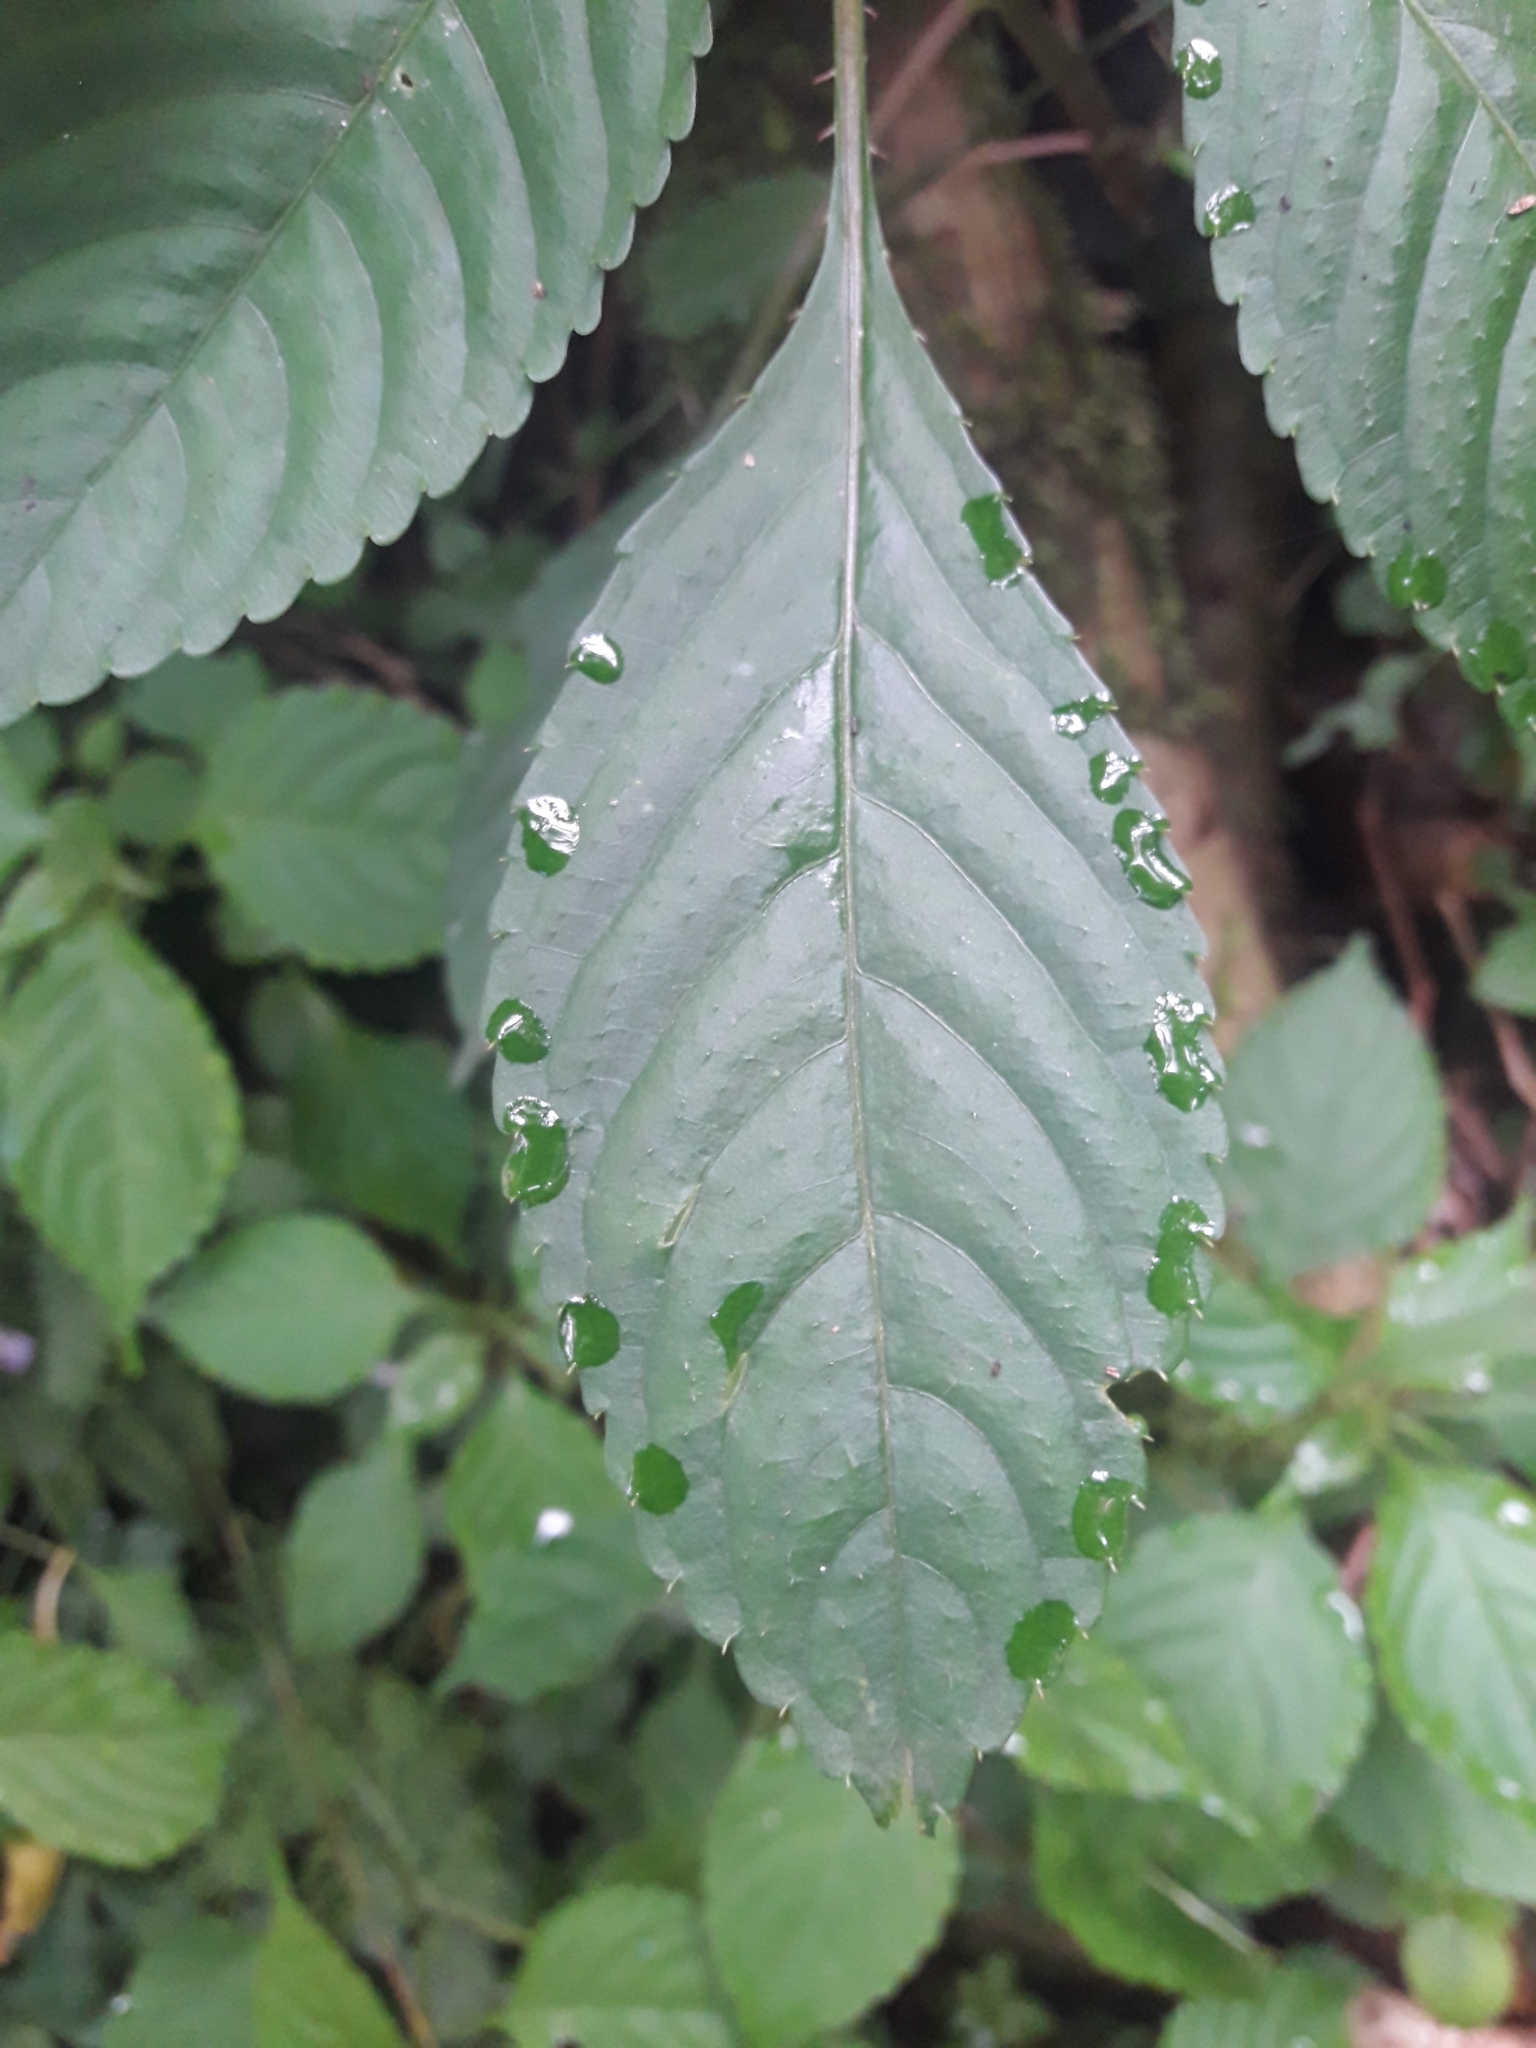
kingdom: Plantae
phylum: Tracheophyta
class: Magnoliopsida
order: Ericales
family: Balsaminaceae
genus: Impatiens
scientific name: Impatiens hochstetteri
